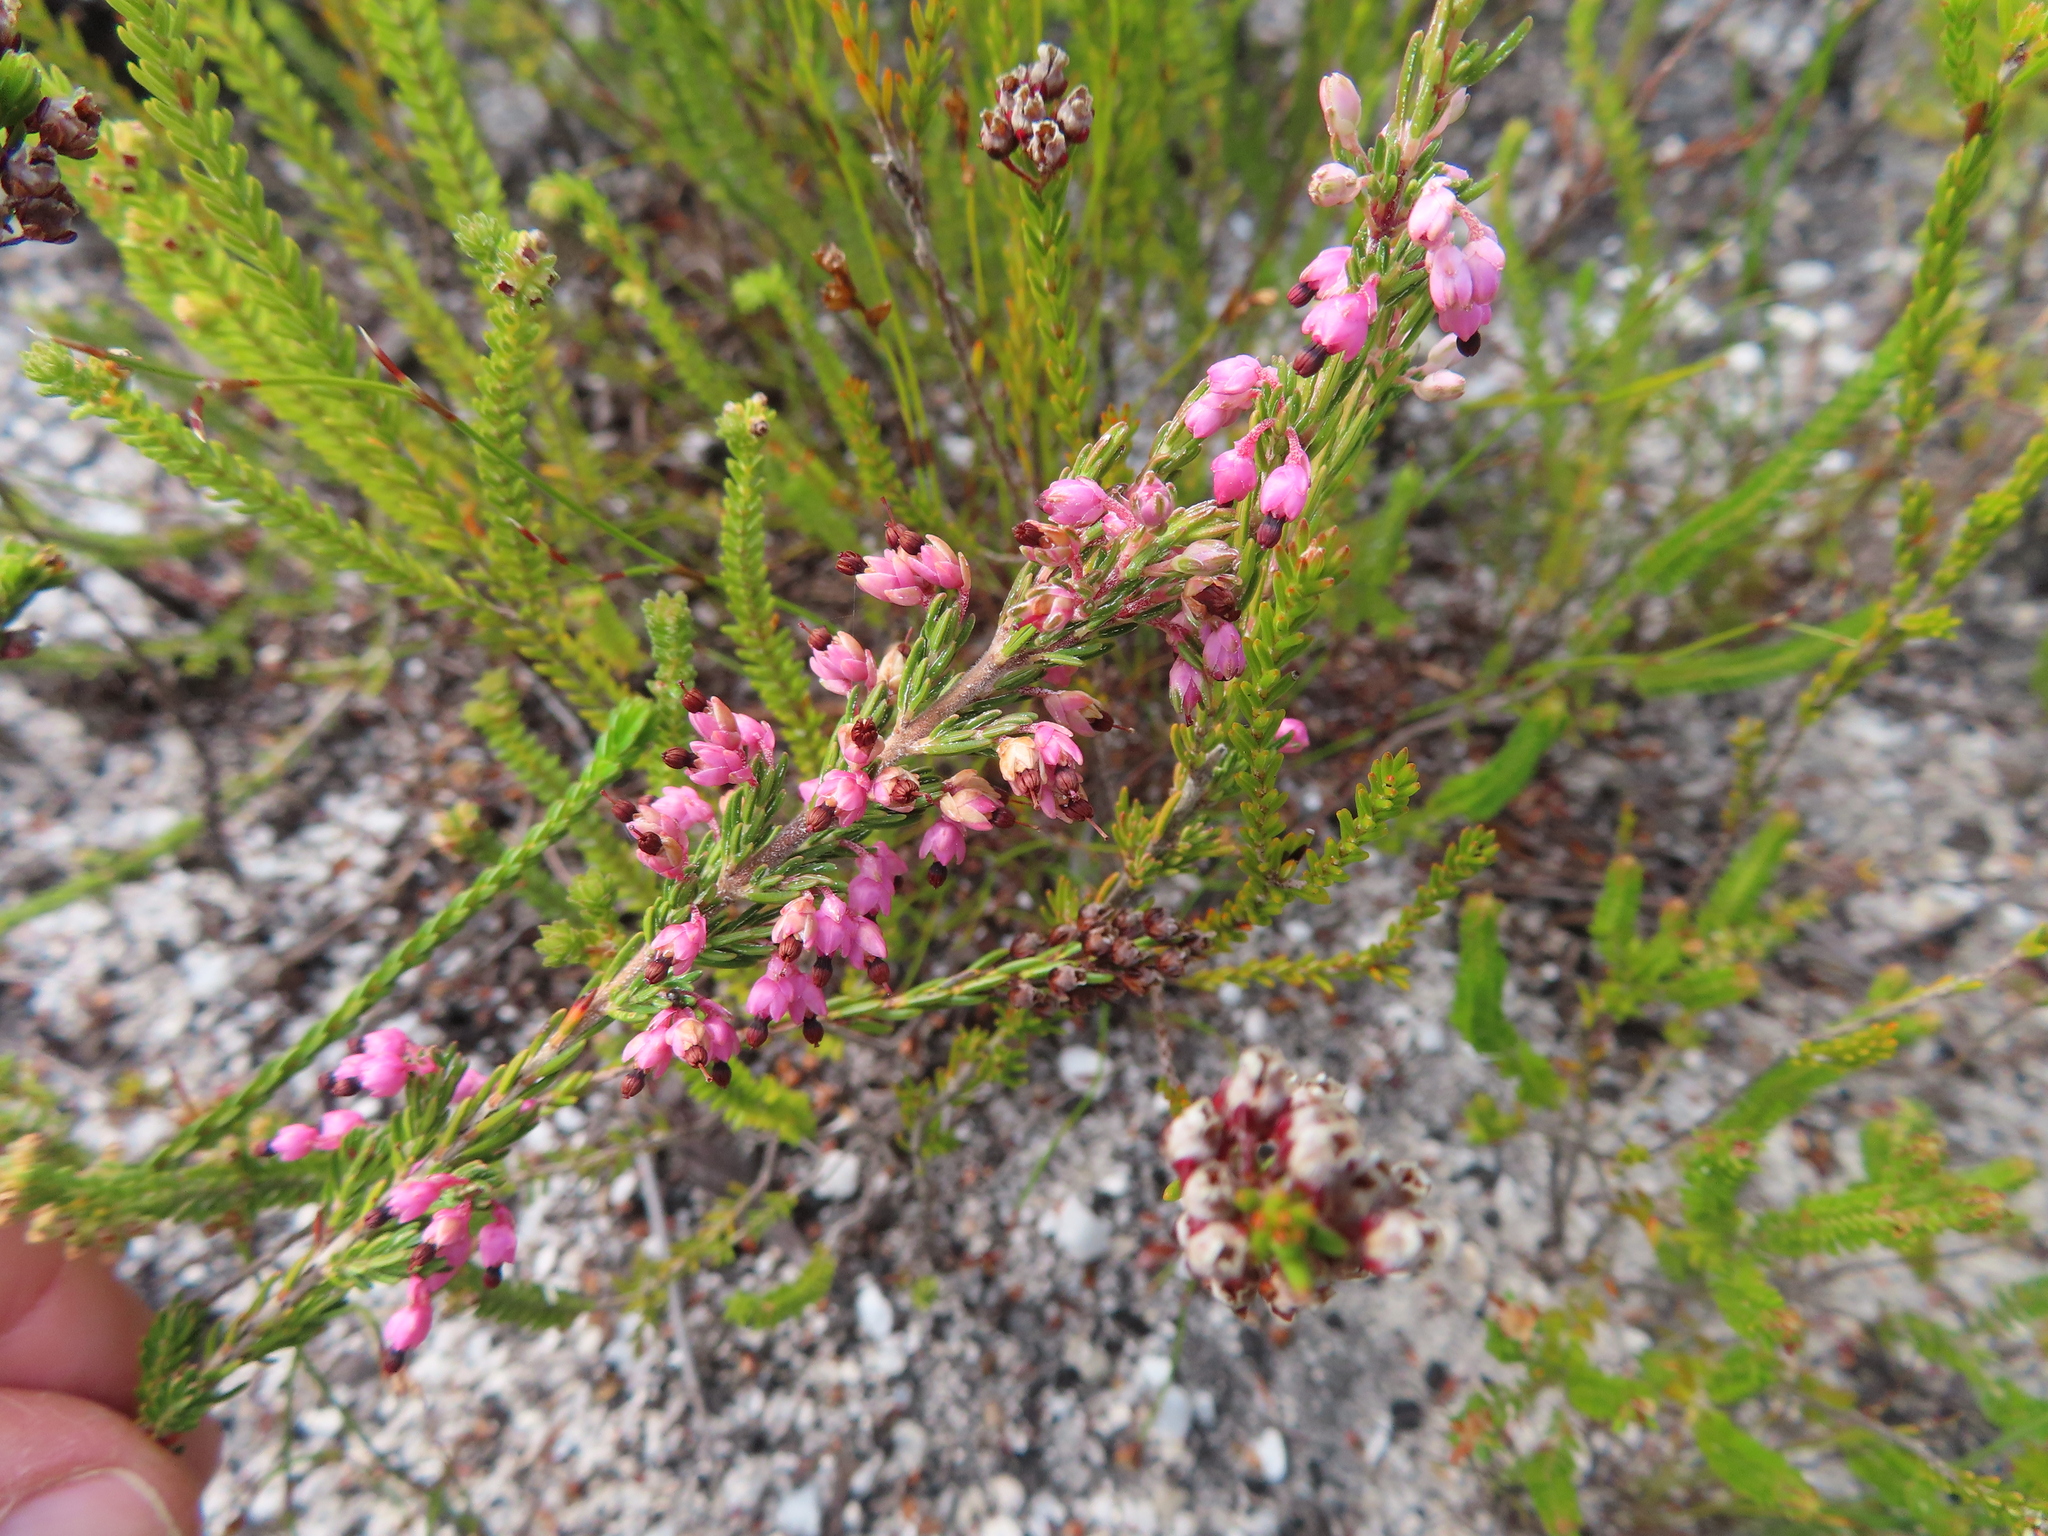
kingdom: Plantae
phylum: Tracheophyta
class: Magnoliopsida
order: Ericales
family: Ericaceae
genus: Erica
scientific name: Erica placentiflora
